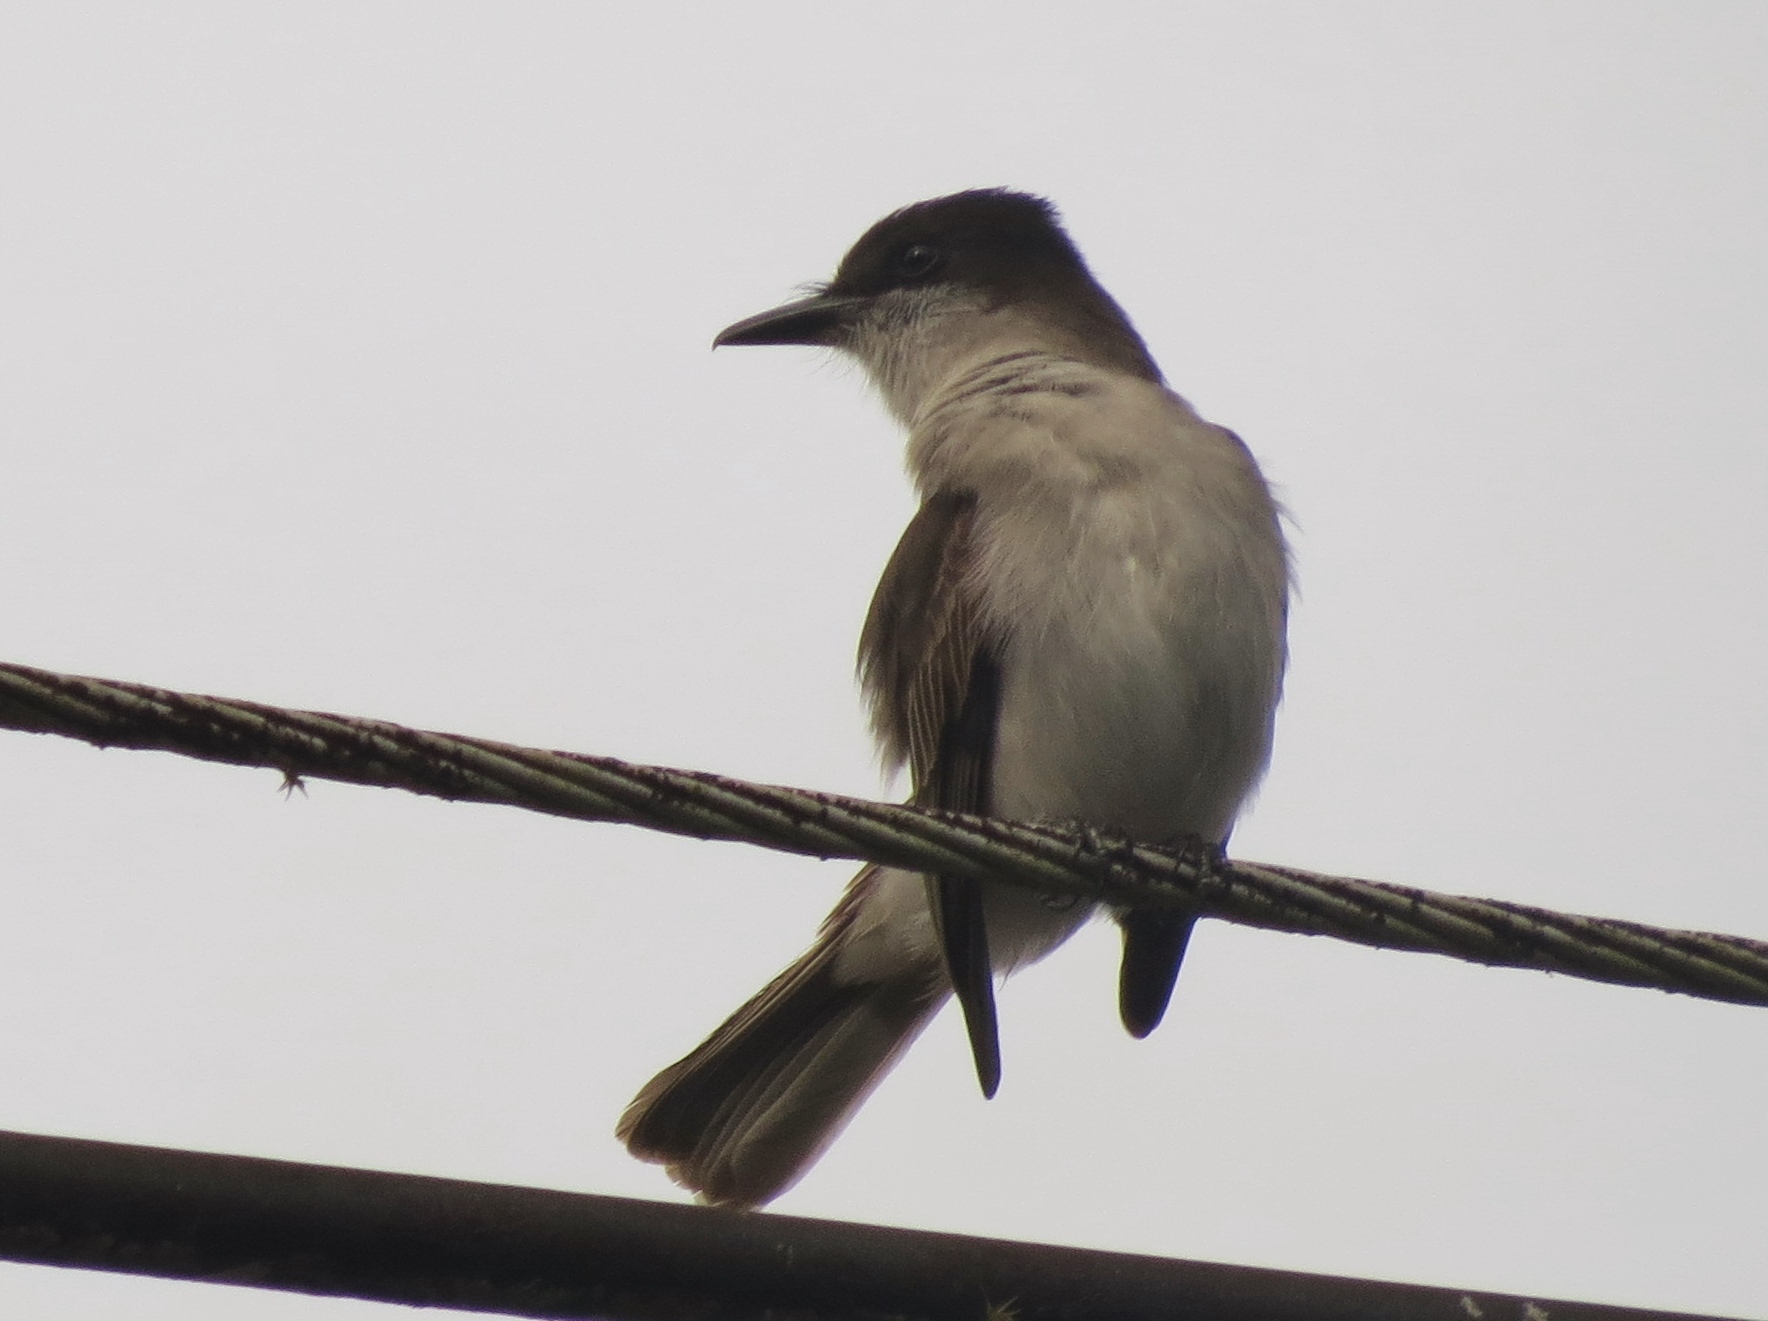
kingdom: Animalia
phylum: Chordata
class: Aves
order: Passeriformes
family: Tyrannidae
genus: Tyrannus
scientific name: Tyrannus caudifasciatus
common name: Loggerhead kingbird
